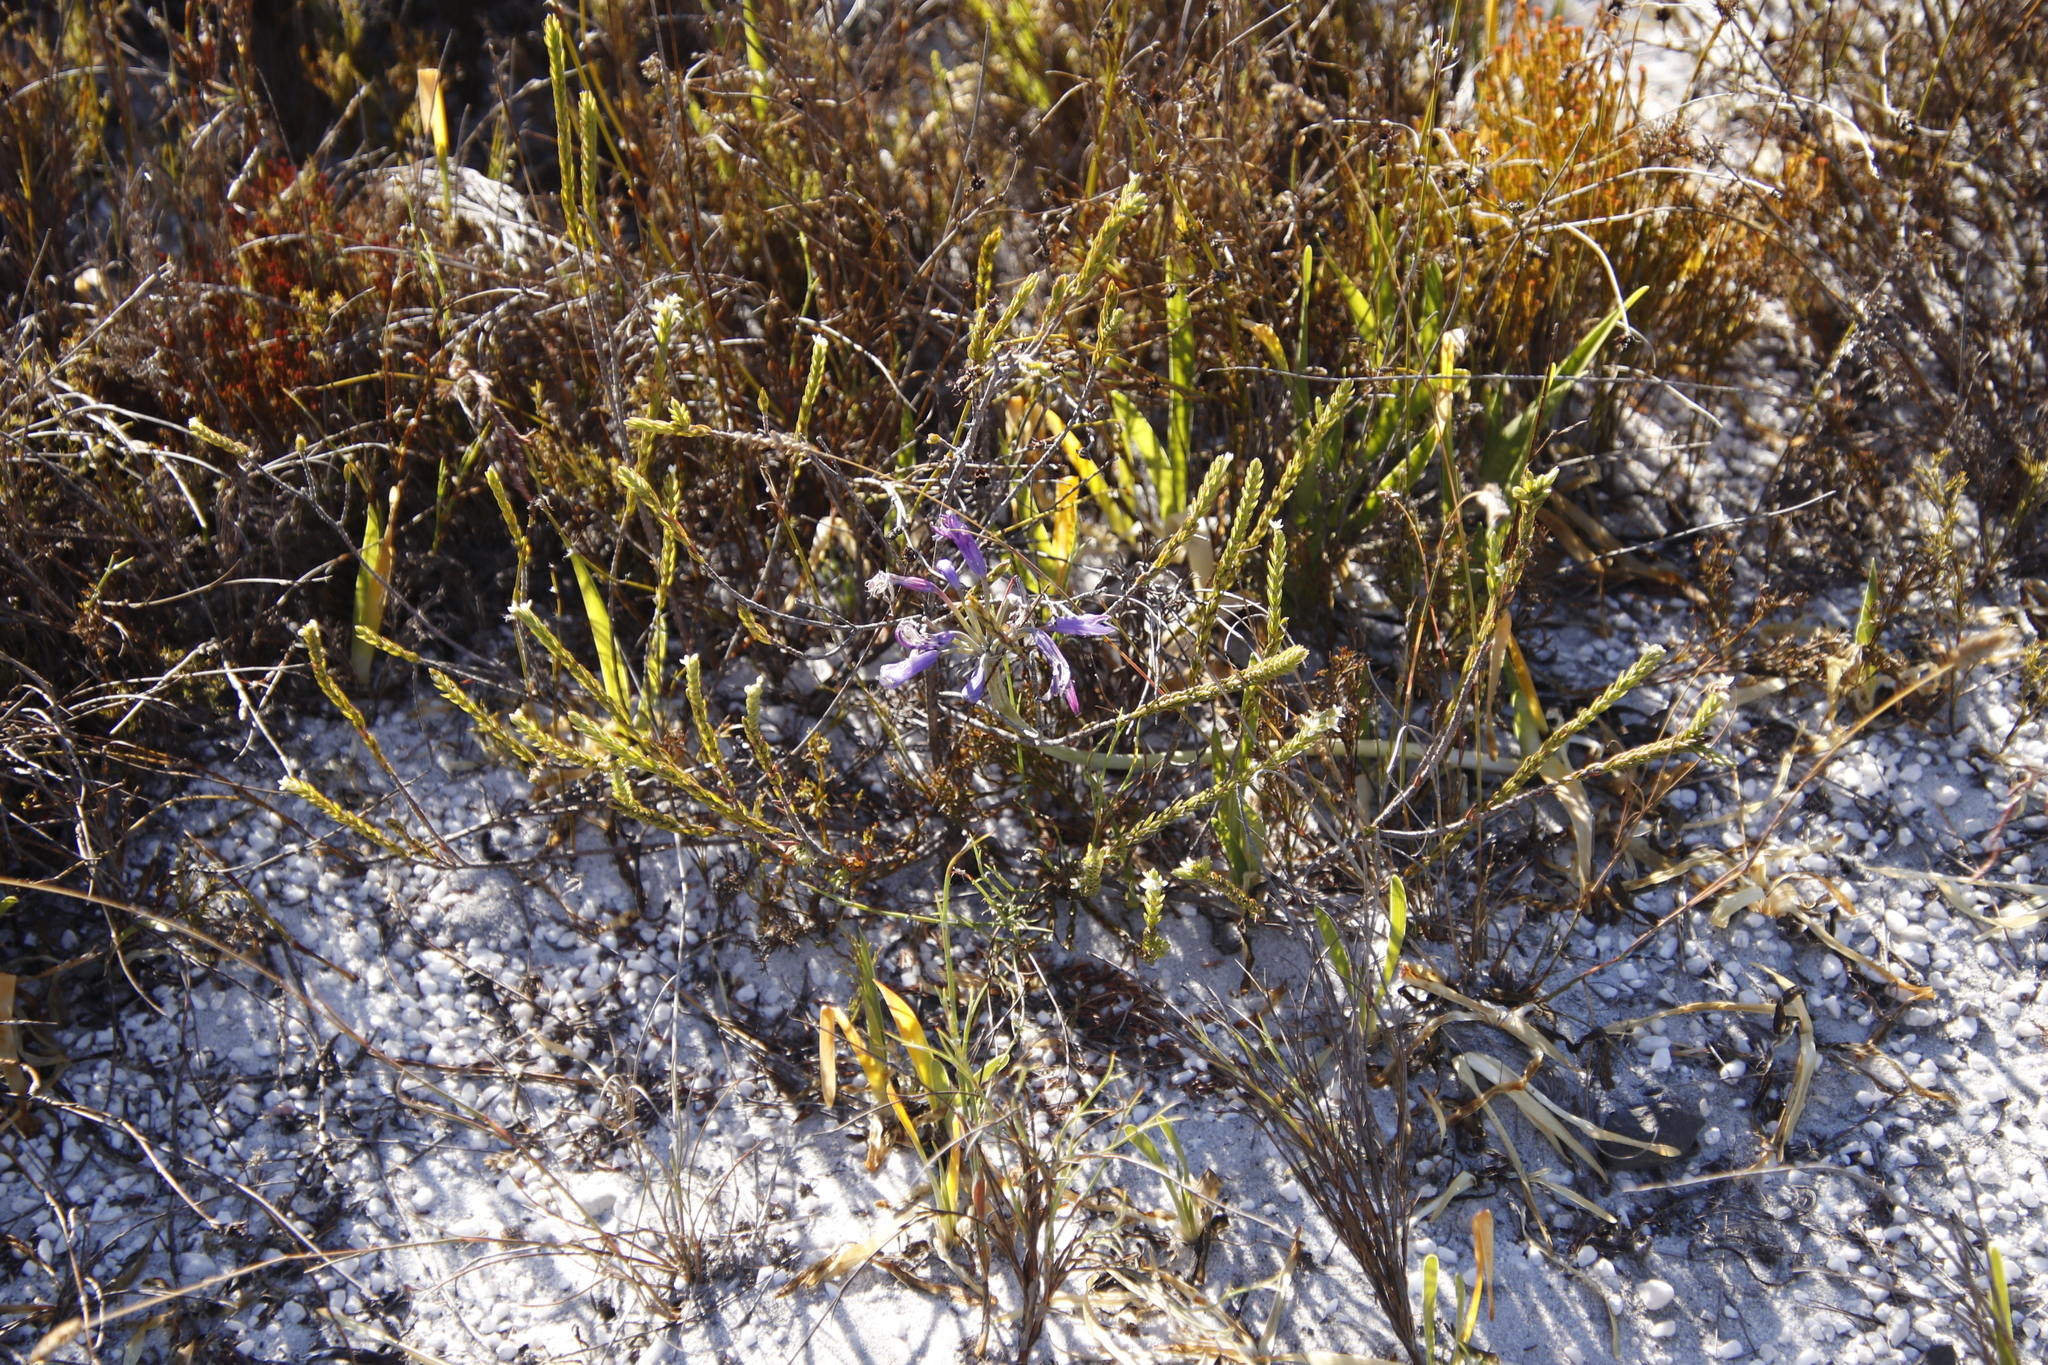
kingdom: Plantae
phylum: Tracheophyta
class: Liliopsida
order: Asparagales
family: Amaryllidaceae
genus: Agapanthus
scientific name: Agapanthus africanus
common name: Lily-of-the-nile
